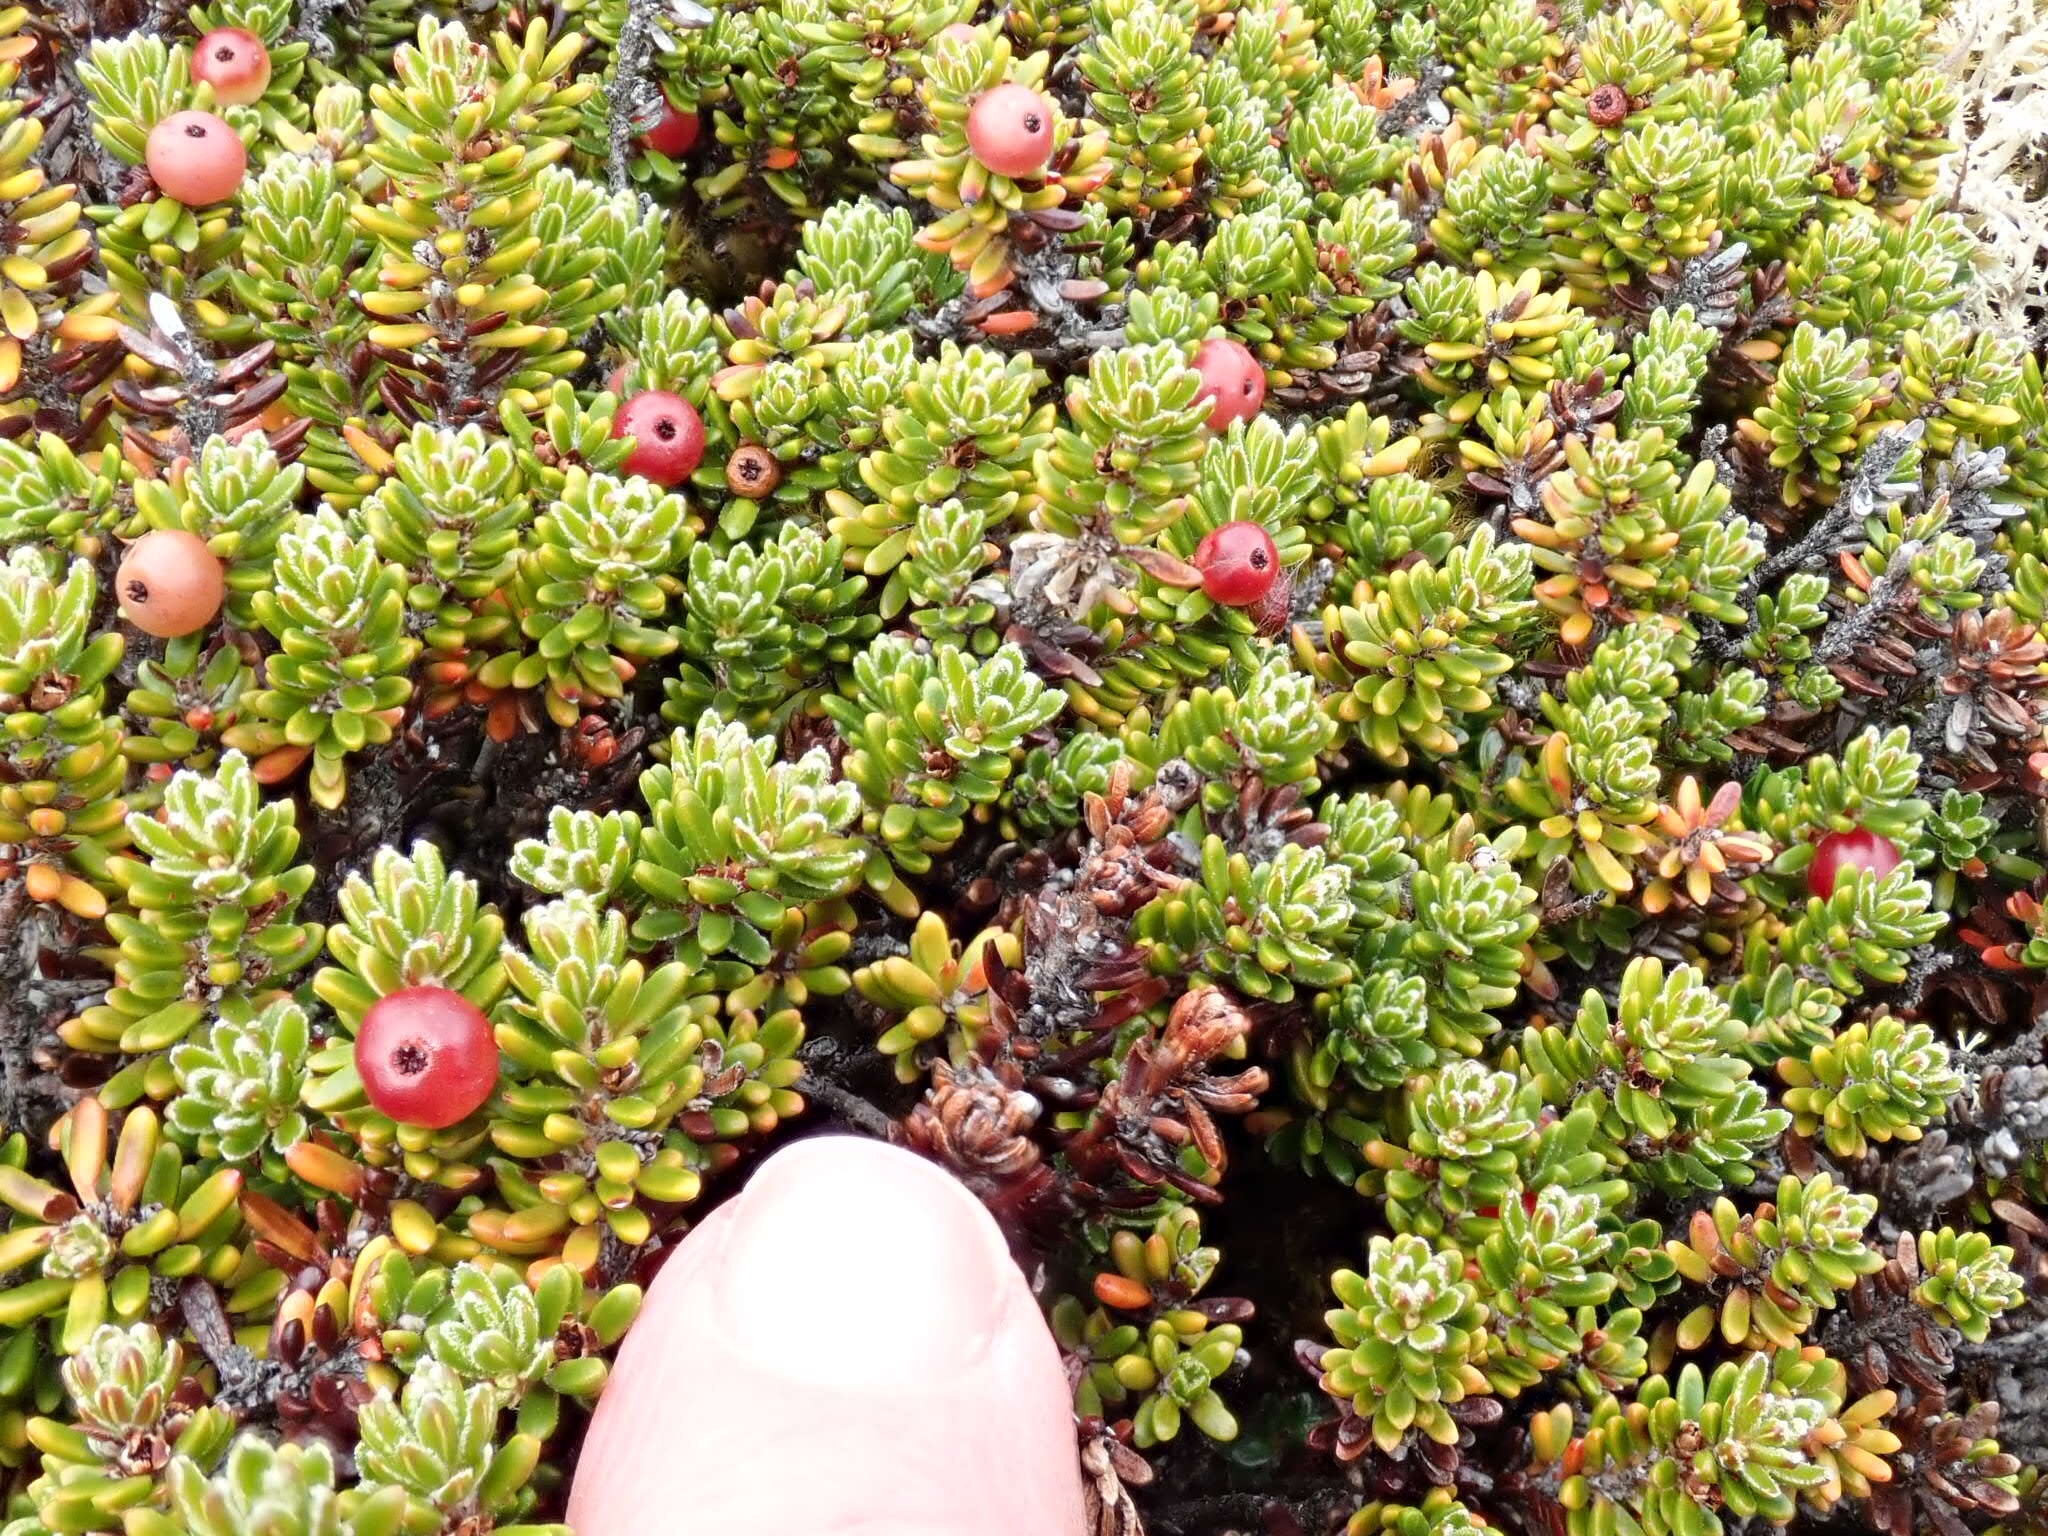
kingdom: Plantae
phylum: Tracheophyta
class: Magnoliopsida
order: Ericales
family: Ericaceae
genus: Empetrum
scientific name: Empetrum rubrum
